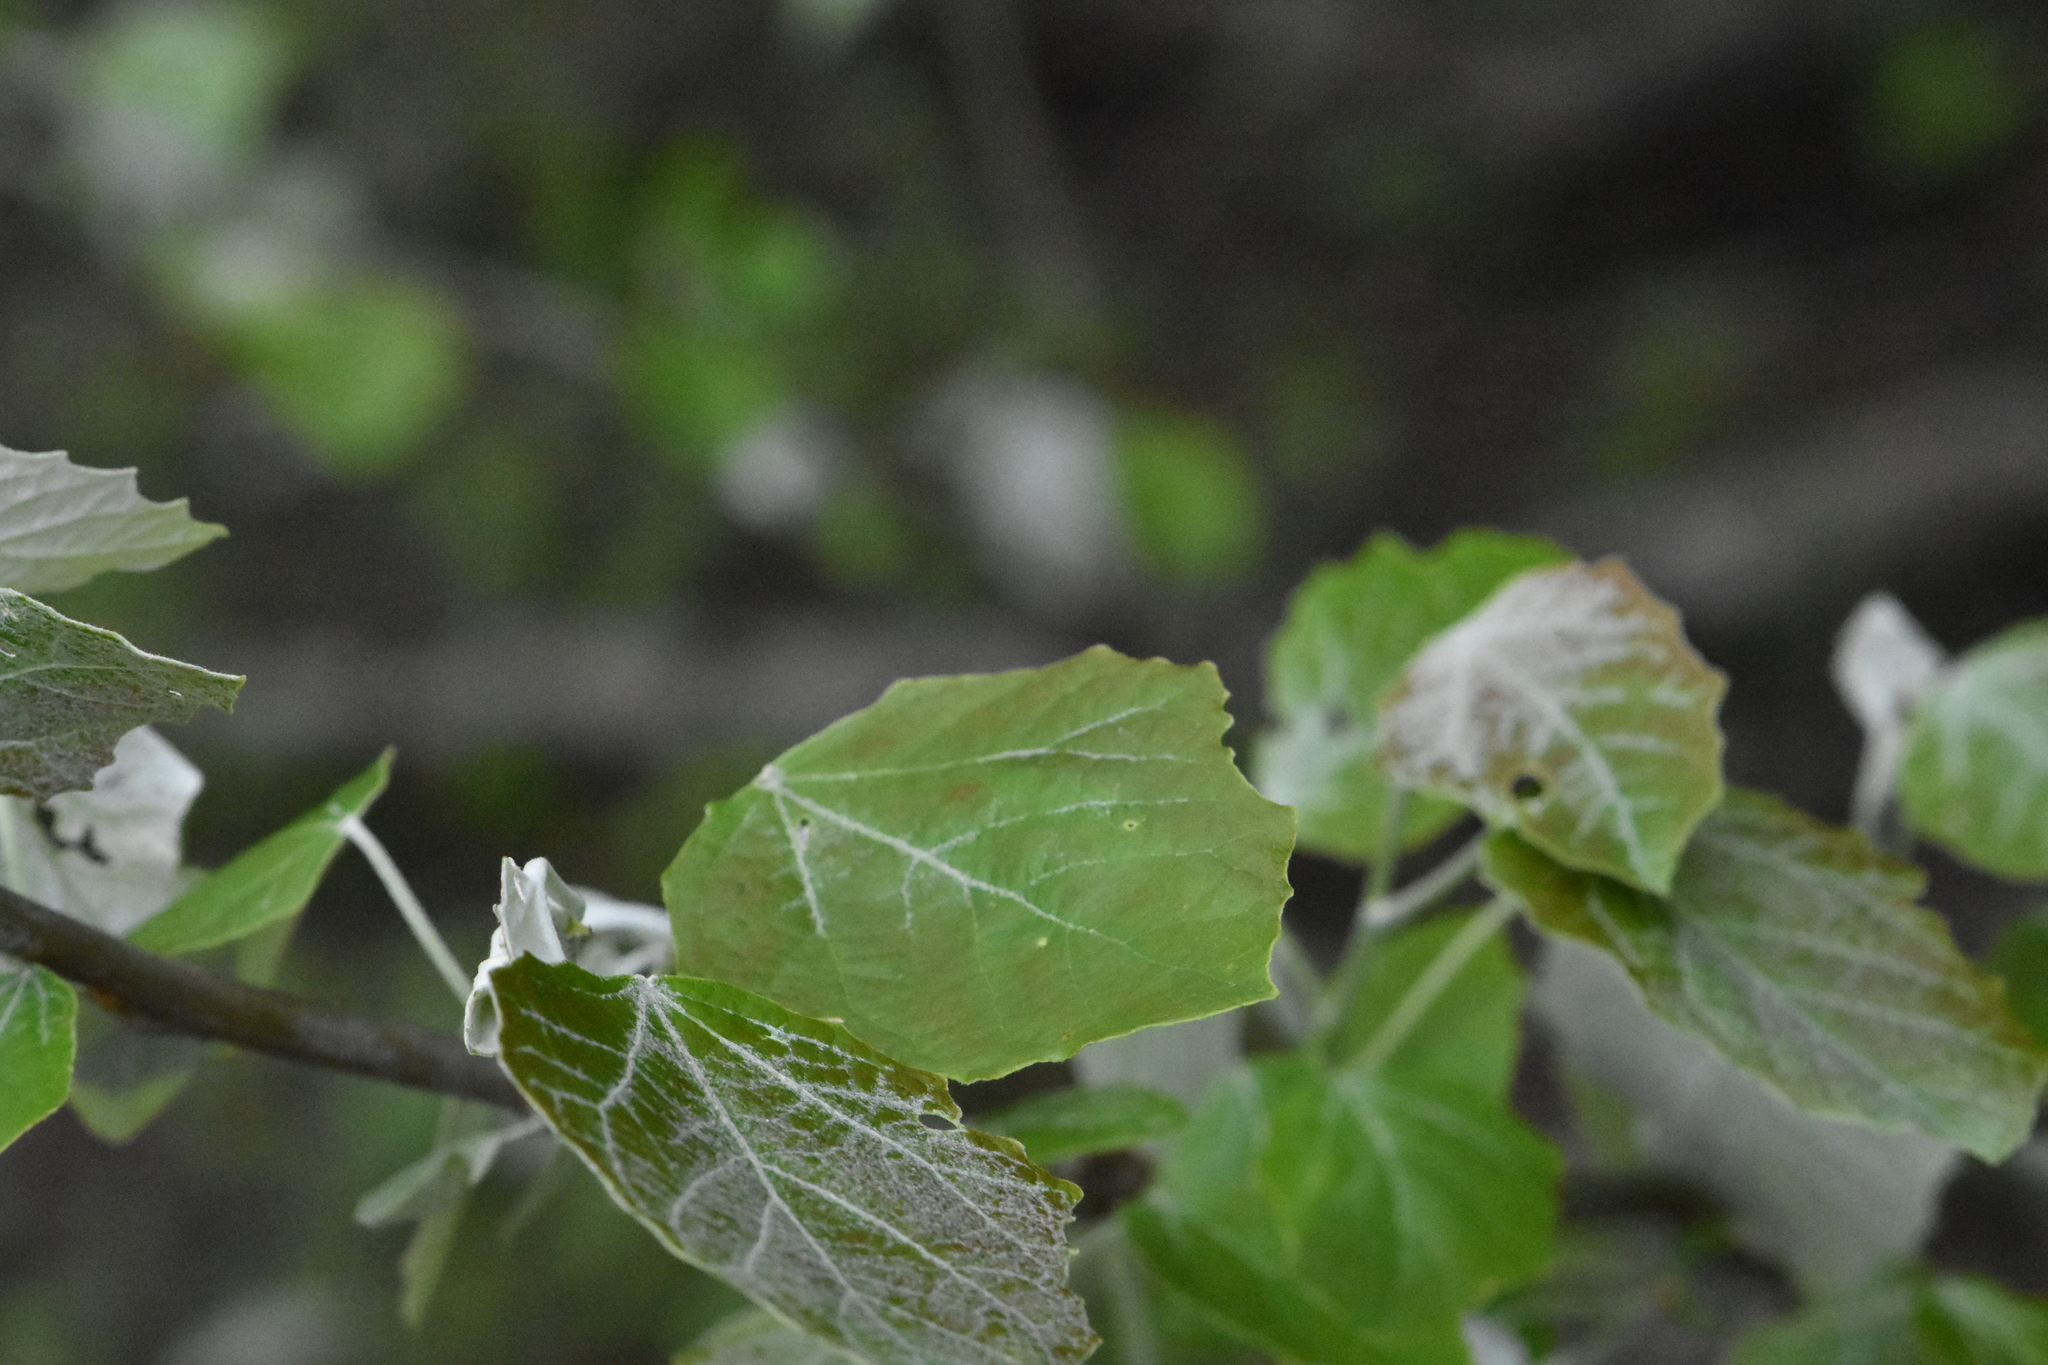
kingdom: Plantae
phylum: Tracheophyta
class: Magnoliopsida
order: Malpighiales
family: Salicaceae
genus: Populus
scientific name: Populus tremula
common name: European aspen
